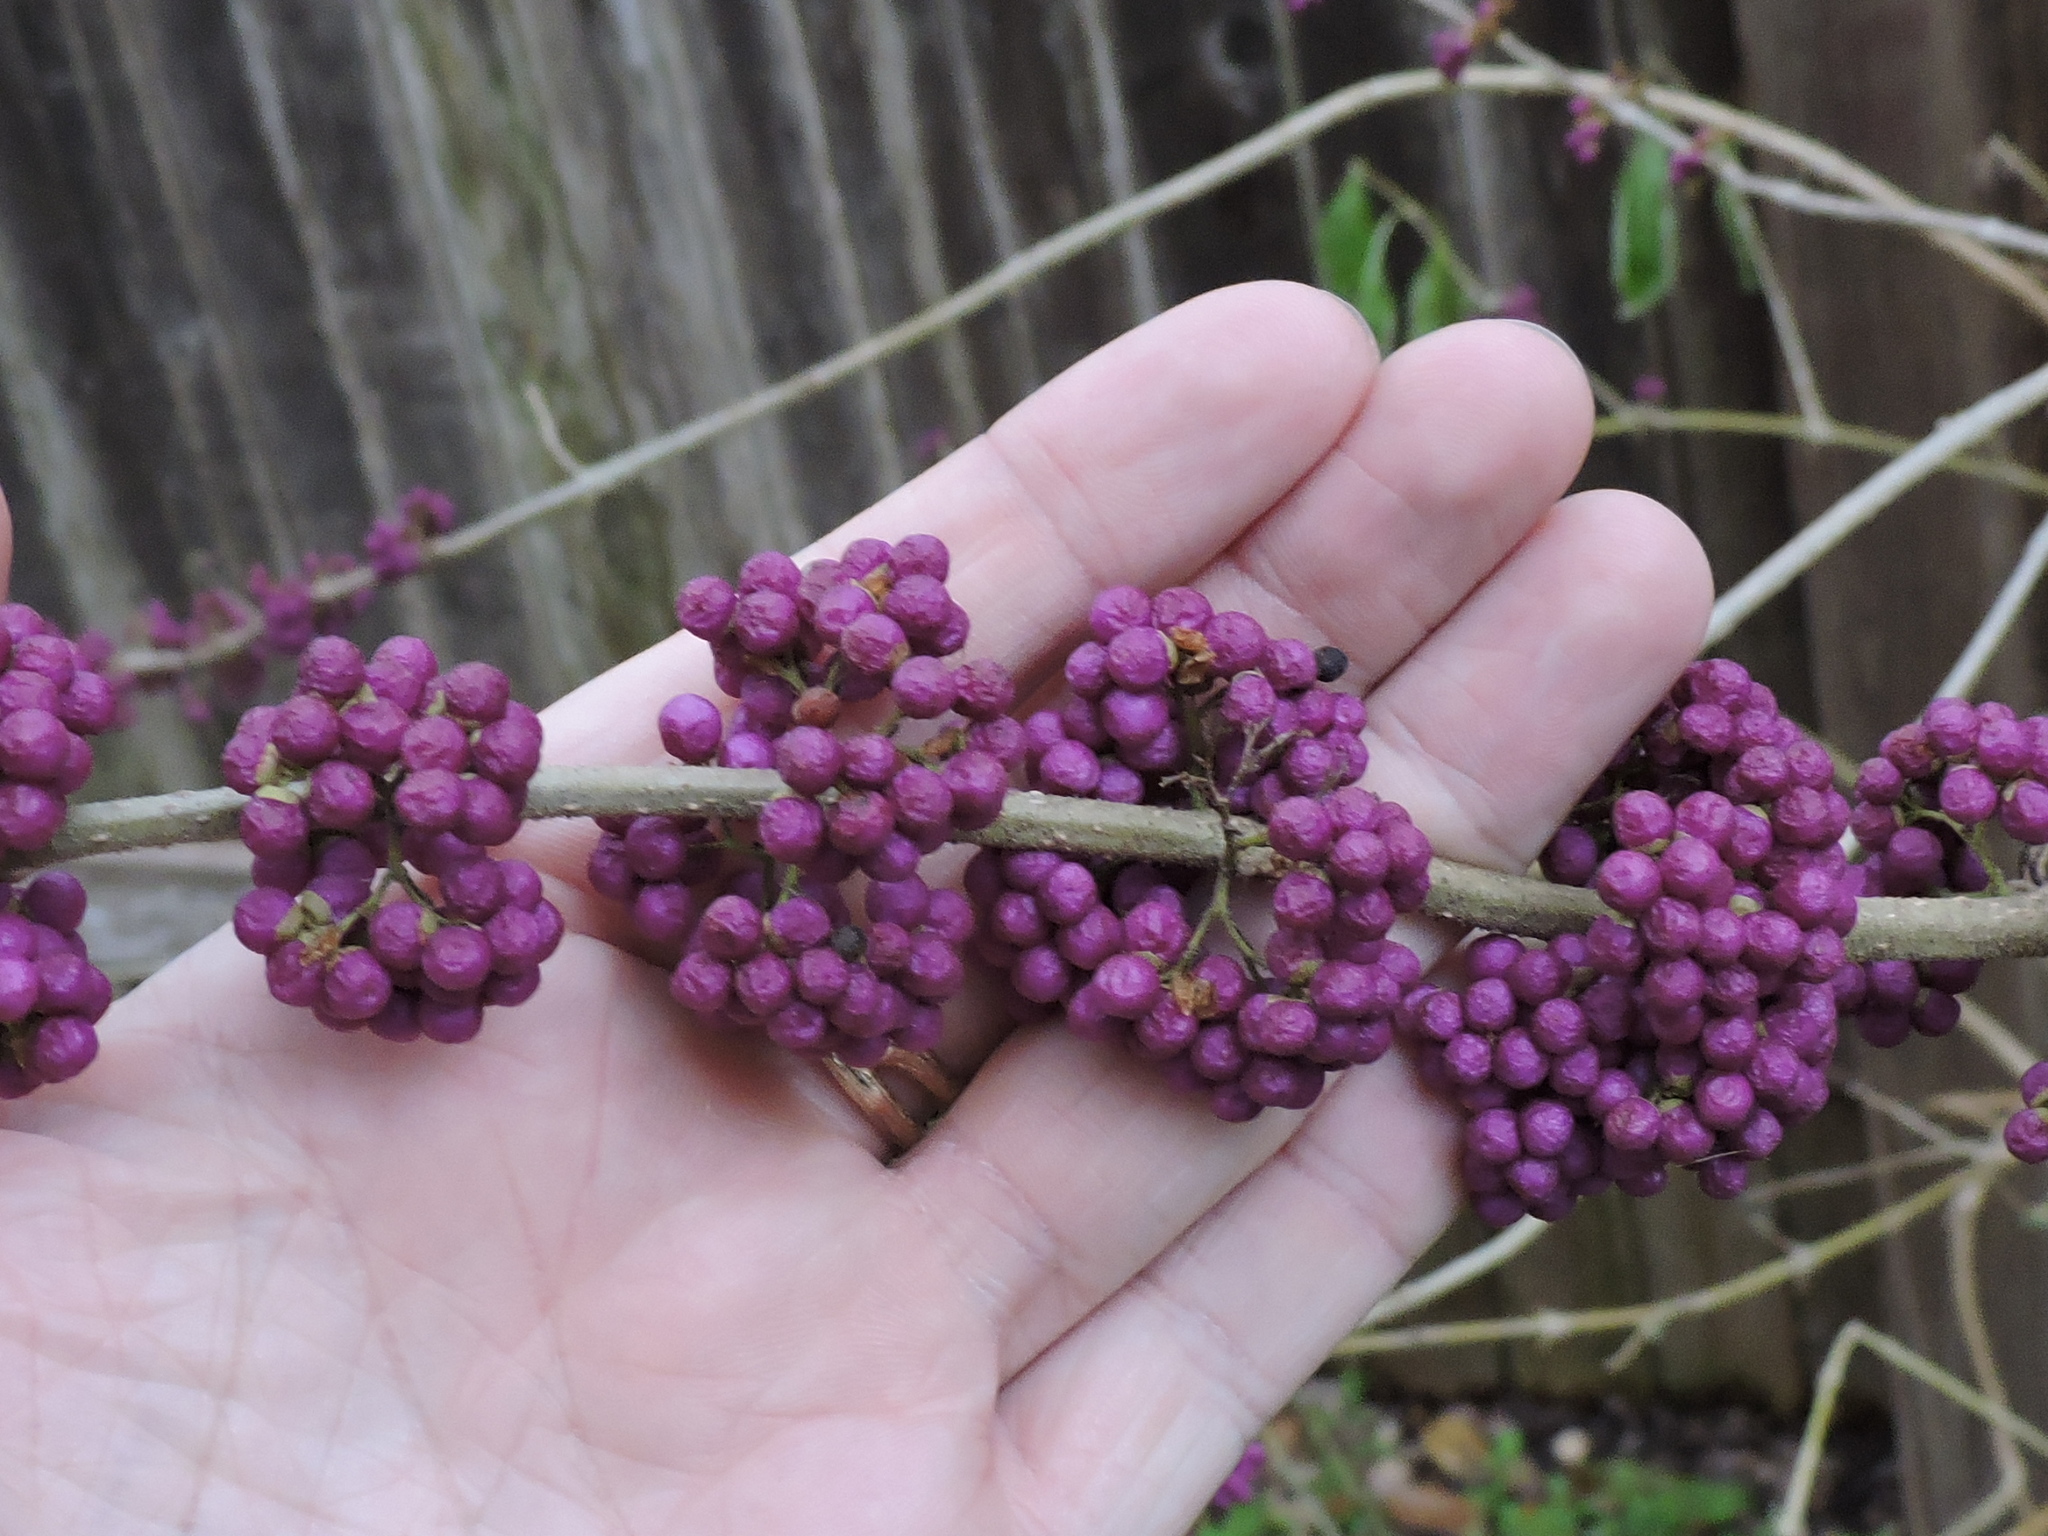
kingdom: Plantae
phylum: Tracheophyta
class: Magnoliopsida
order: Lamiales
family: Lamiaceae
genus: Callicarpa
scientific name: Callicarpa americana
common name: American beautyberry
